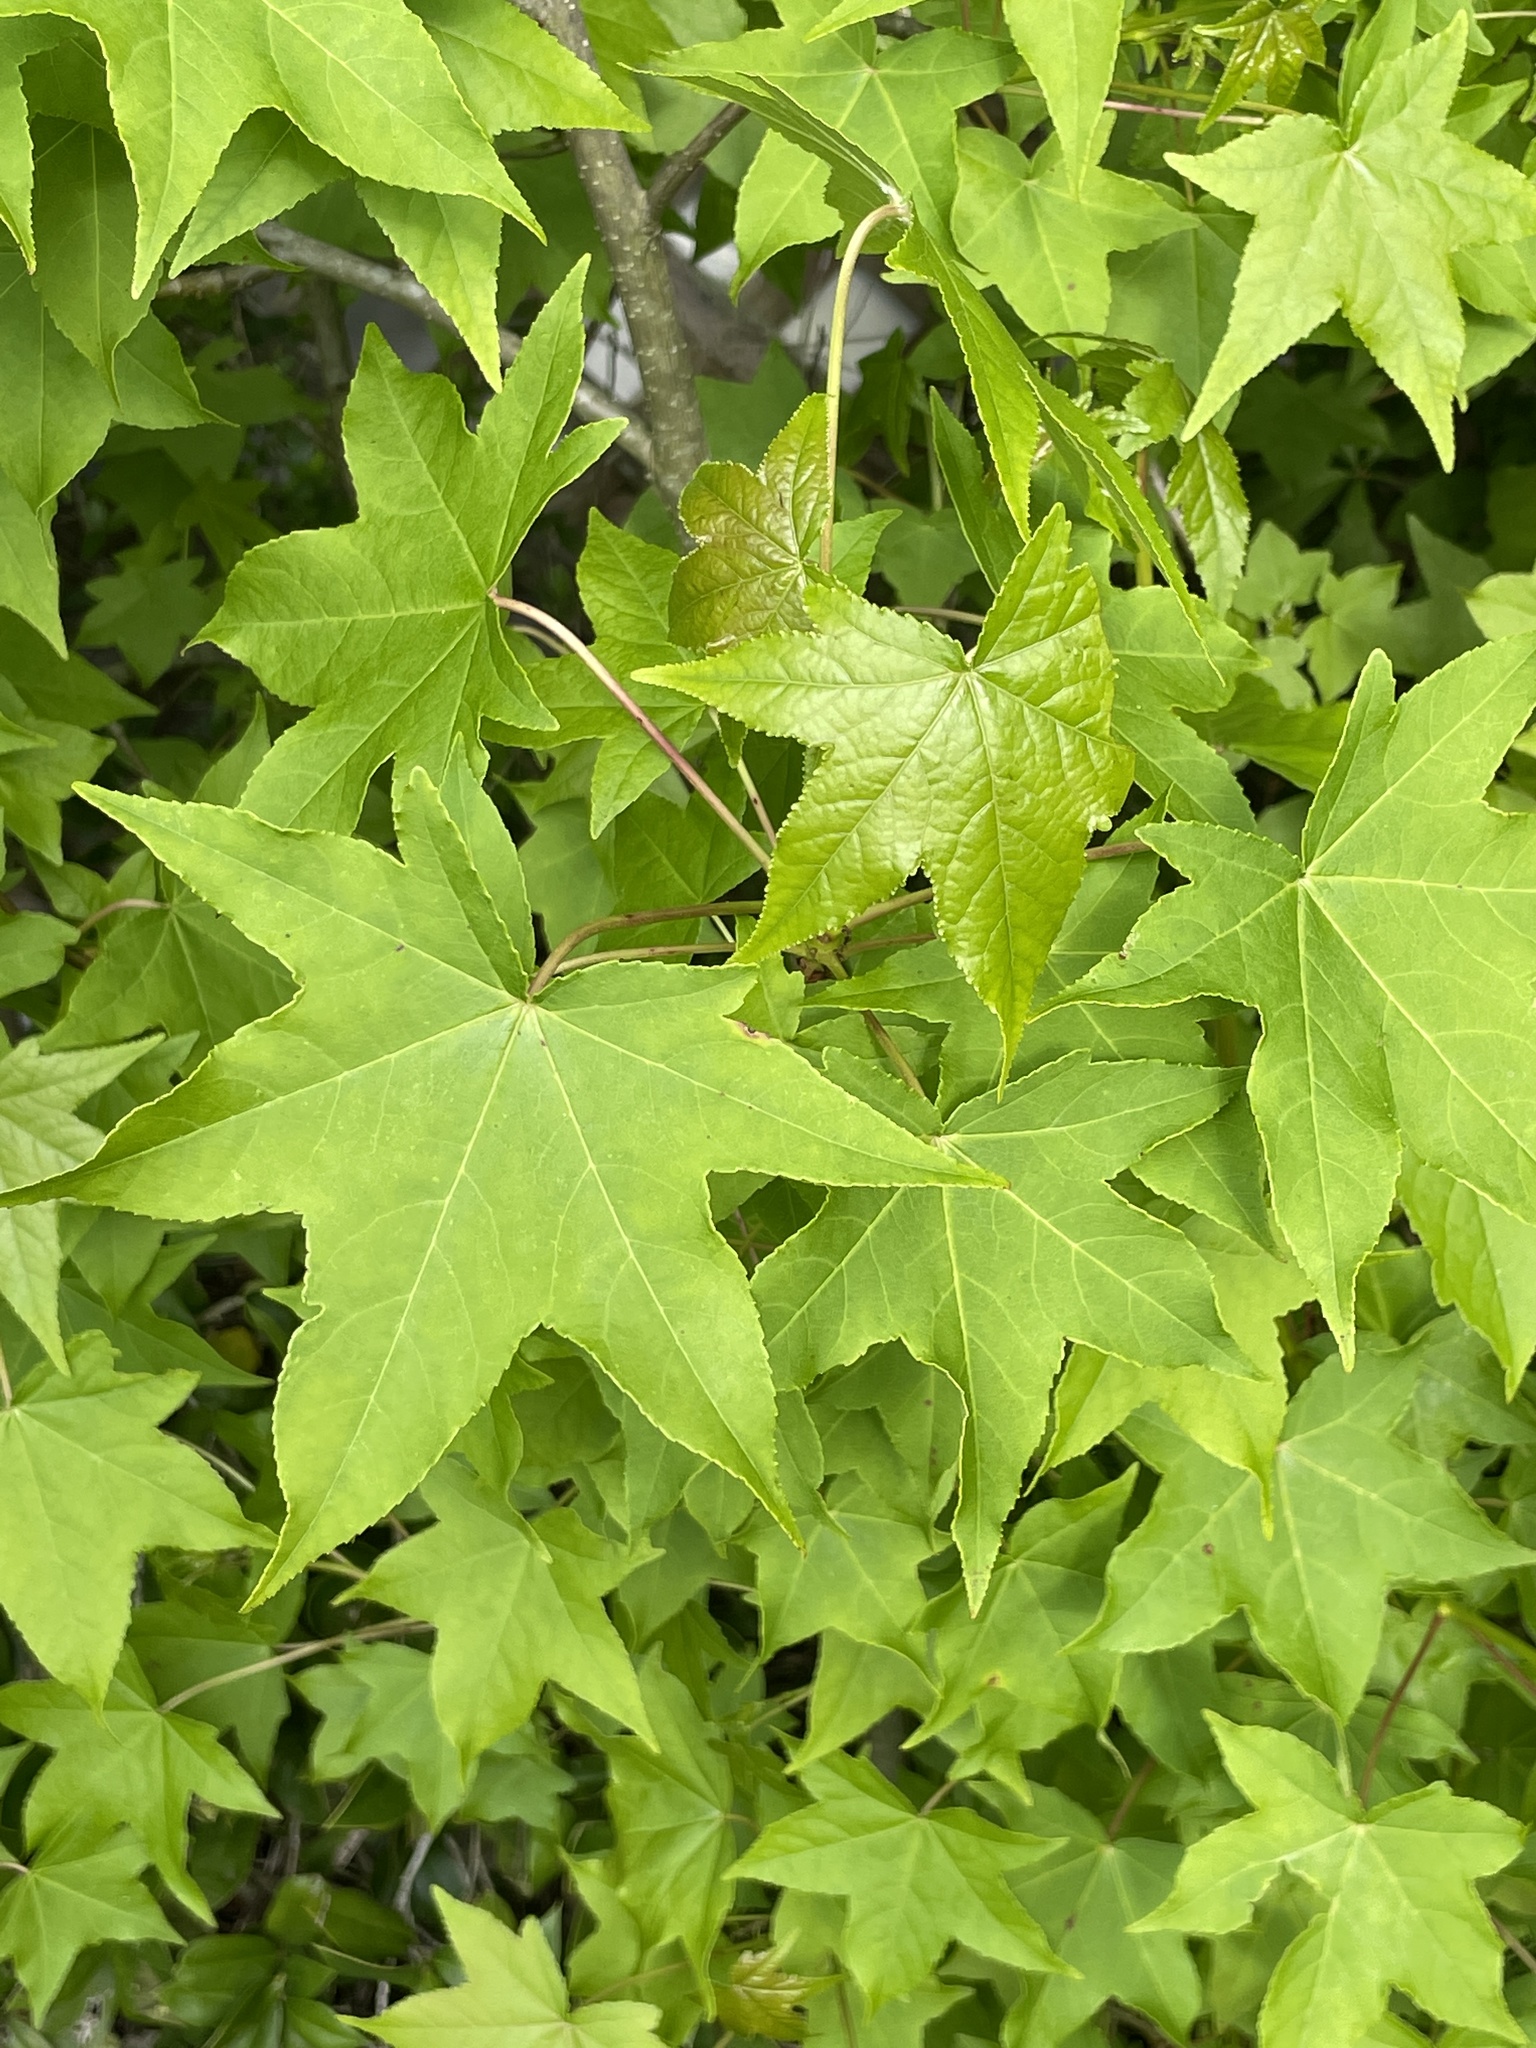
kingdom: Plantae
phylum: Tracheophyta
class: Magnoliopsida
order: Saxifragales
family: Altingiaceae
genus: Liquidambar
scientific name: Liquidambar styraciflua
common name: Sweet gum
